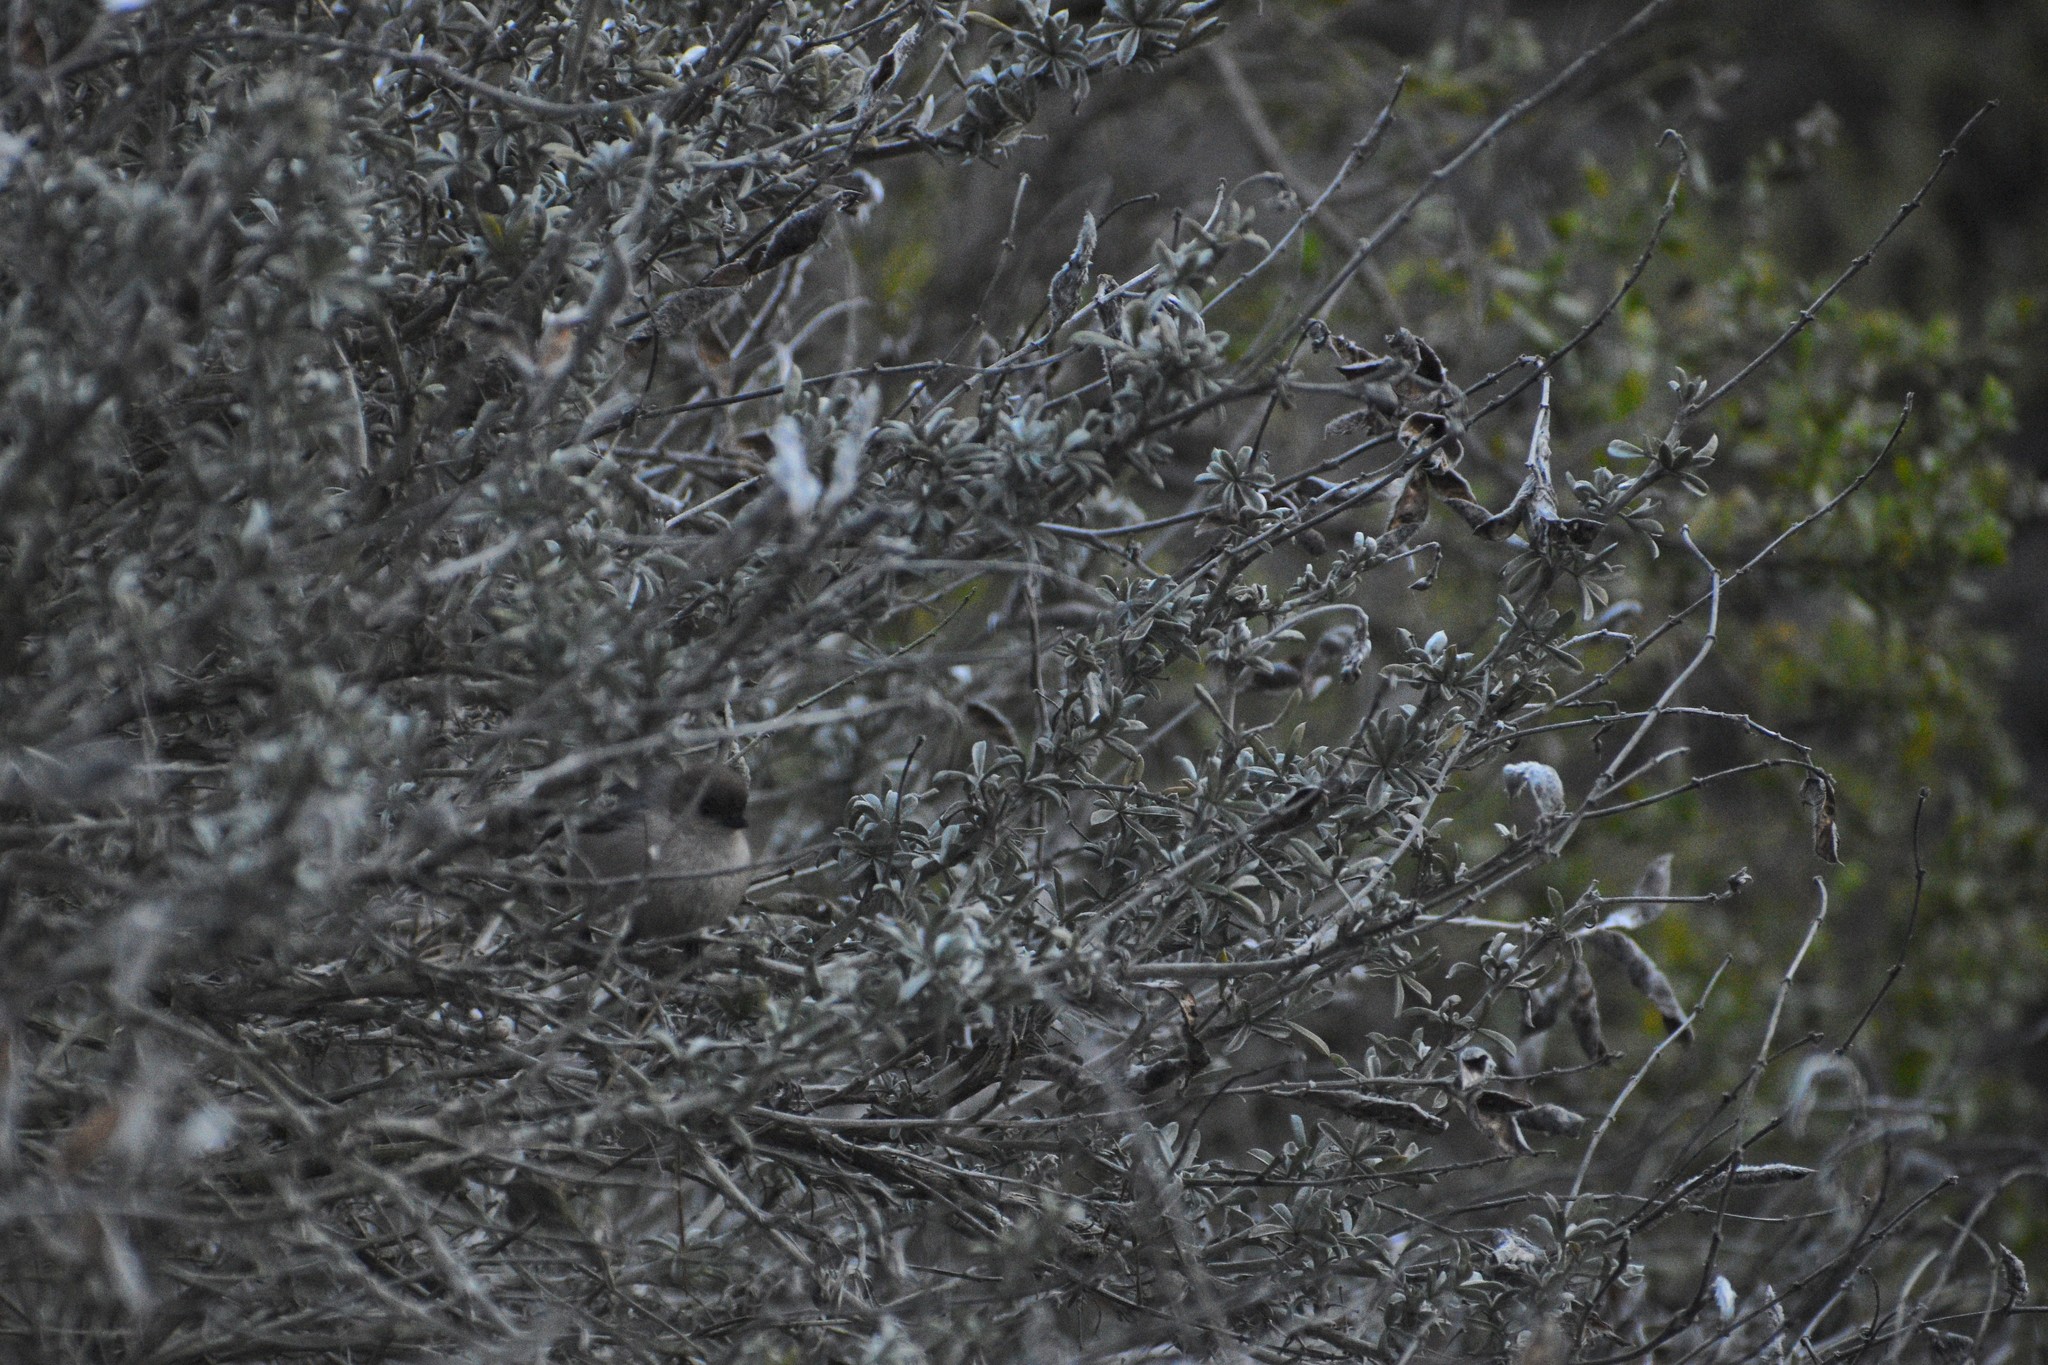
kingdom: Animalia
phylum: Chordata
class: Aves
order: Passeriformes
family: Aegithalidae
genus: Psaltriparus
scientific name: Psaltriparus minimus
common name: American bushtit
